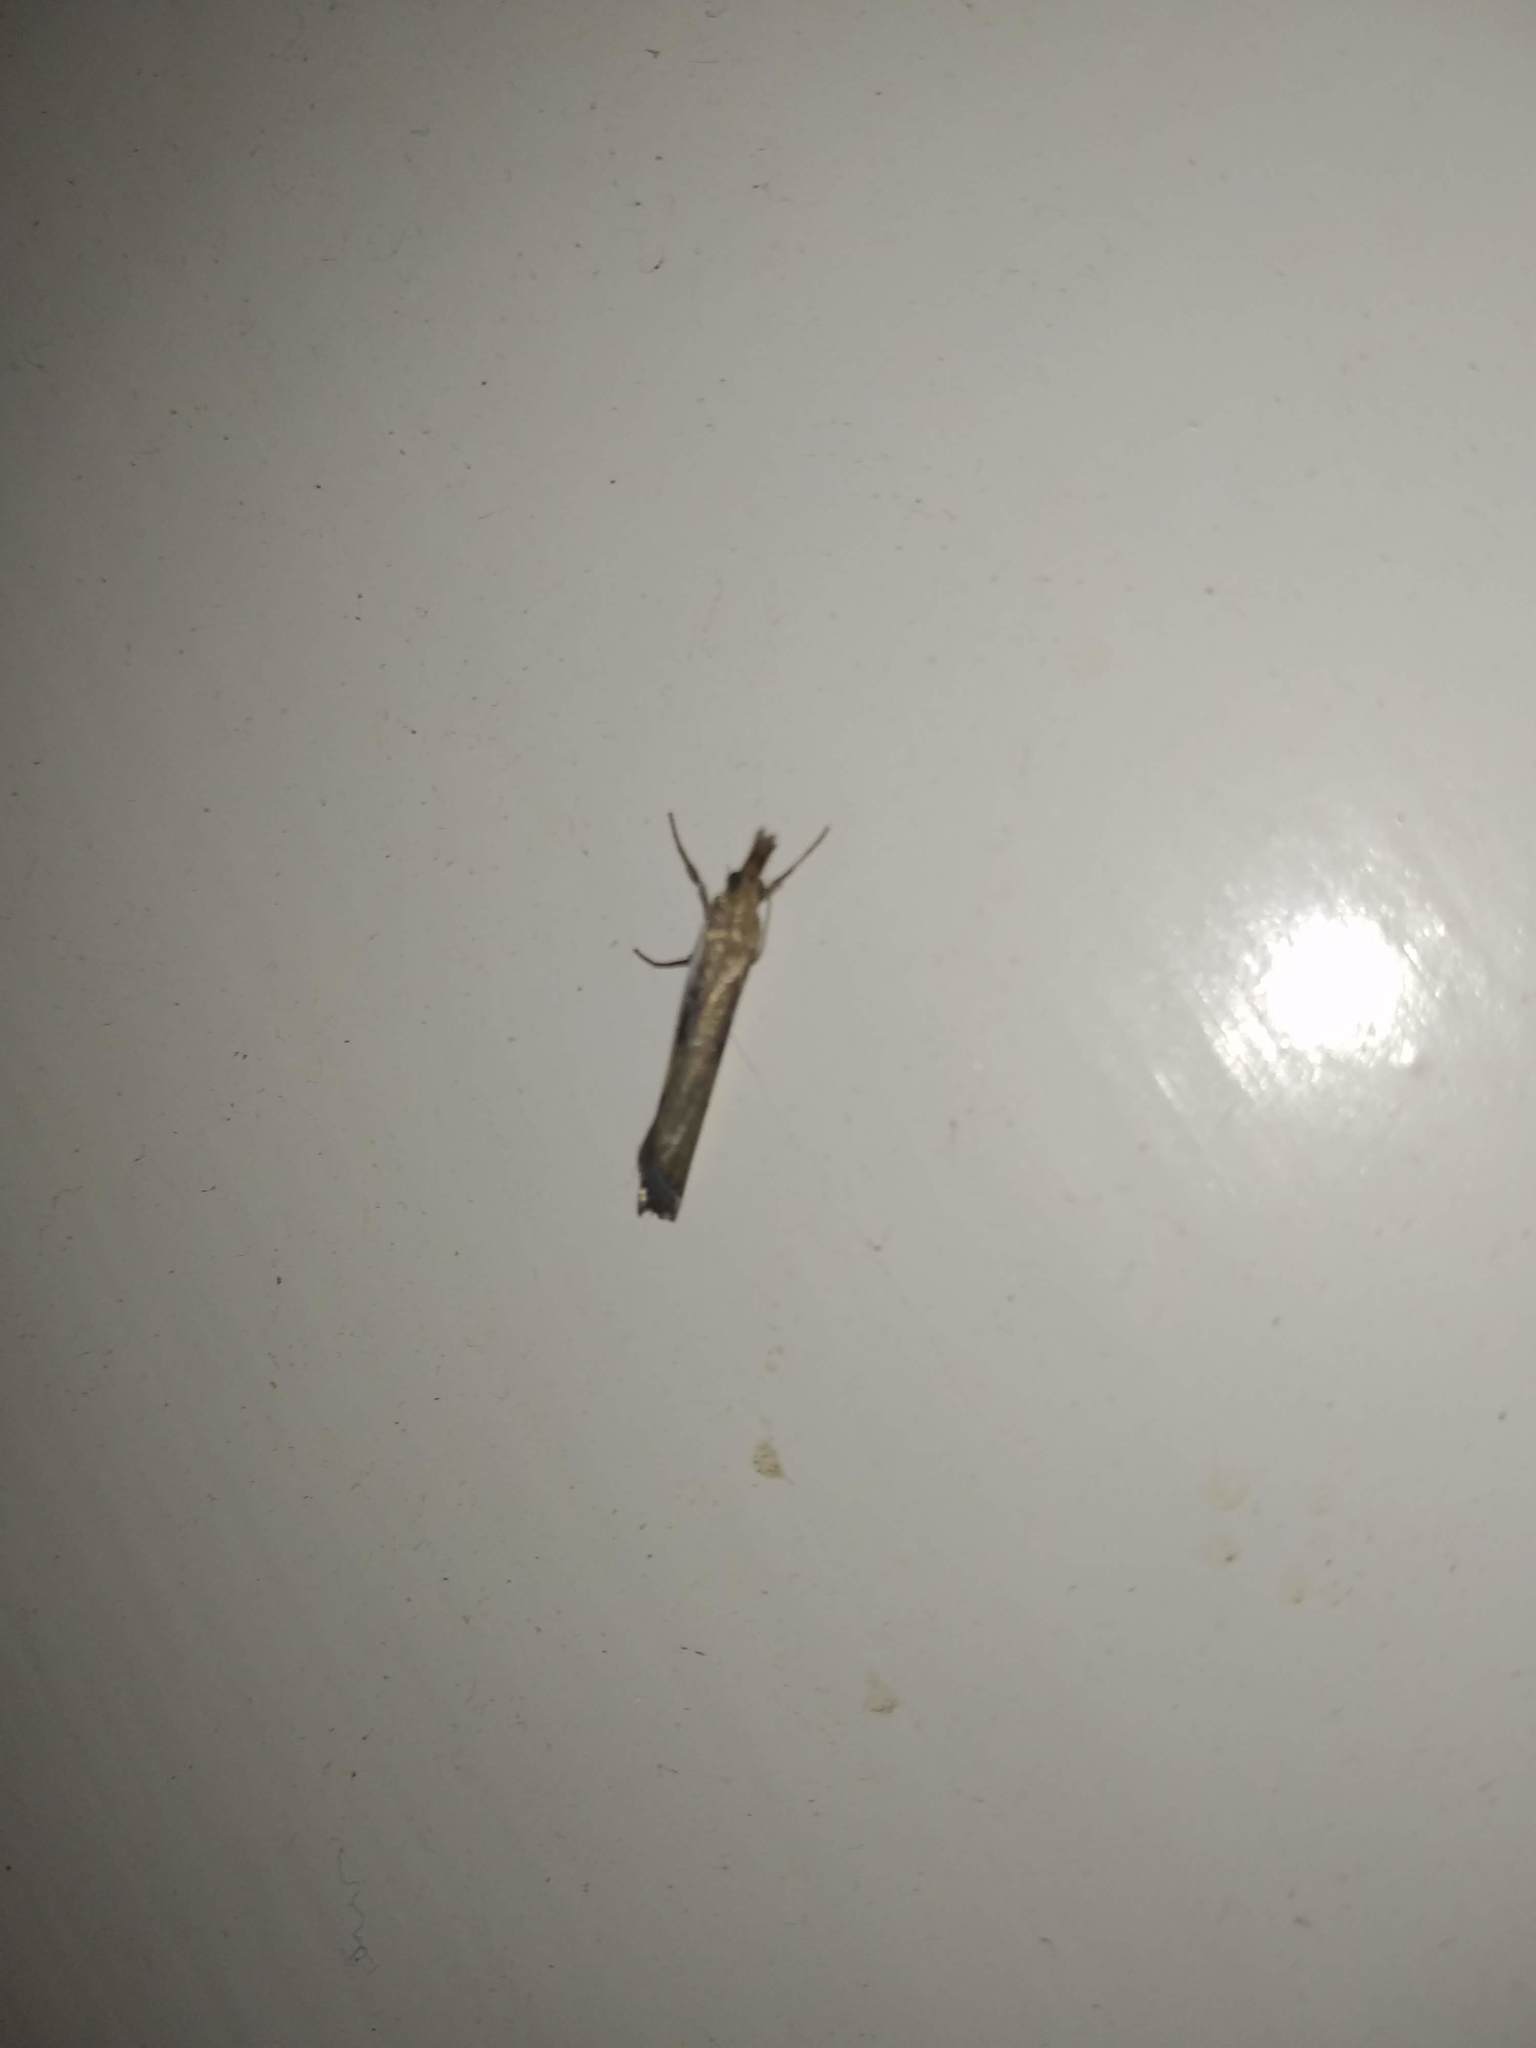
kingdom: Animalia
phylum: Arthropoda
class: Insecta
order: Lepidoptera
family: Crambidae
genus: Orocrambus
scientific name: Orocrambus flexuosellus
